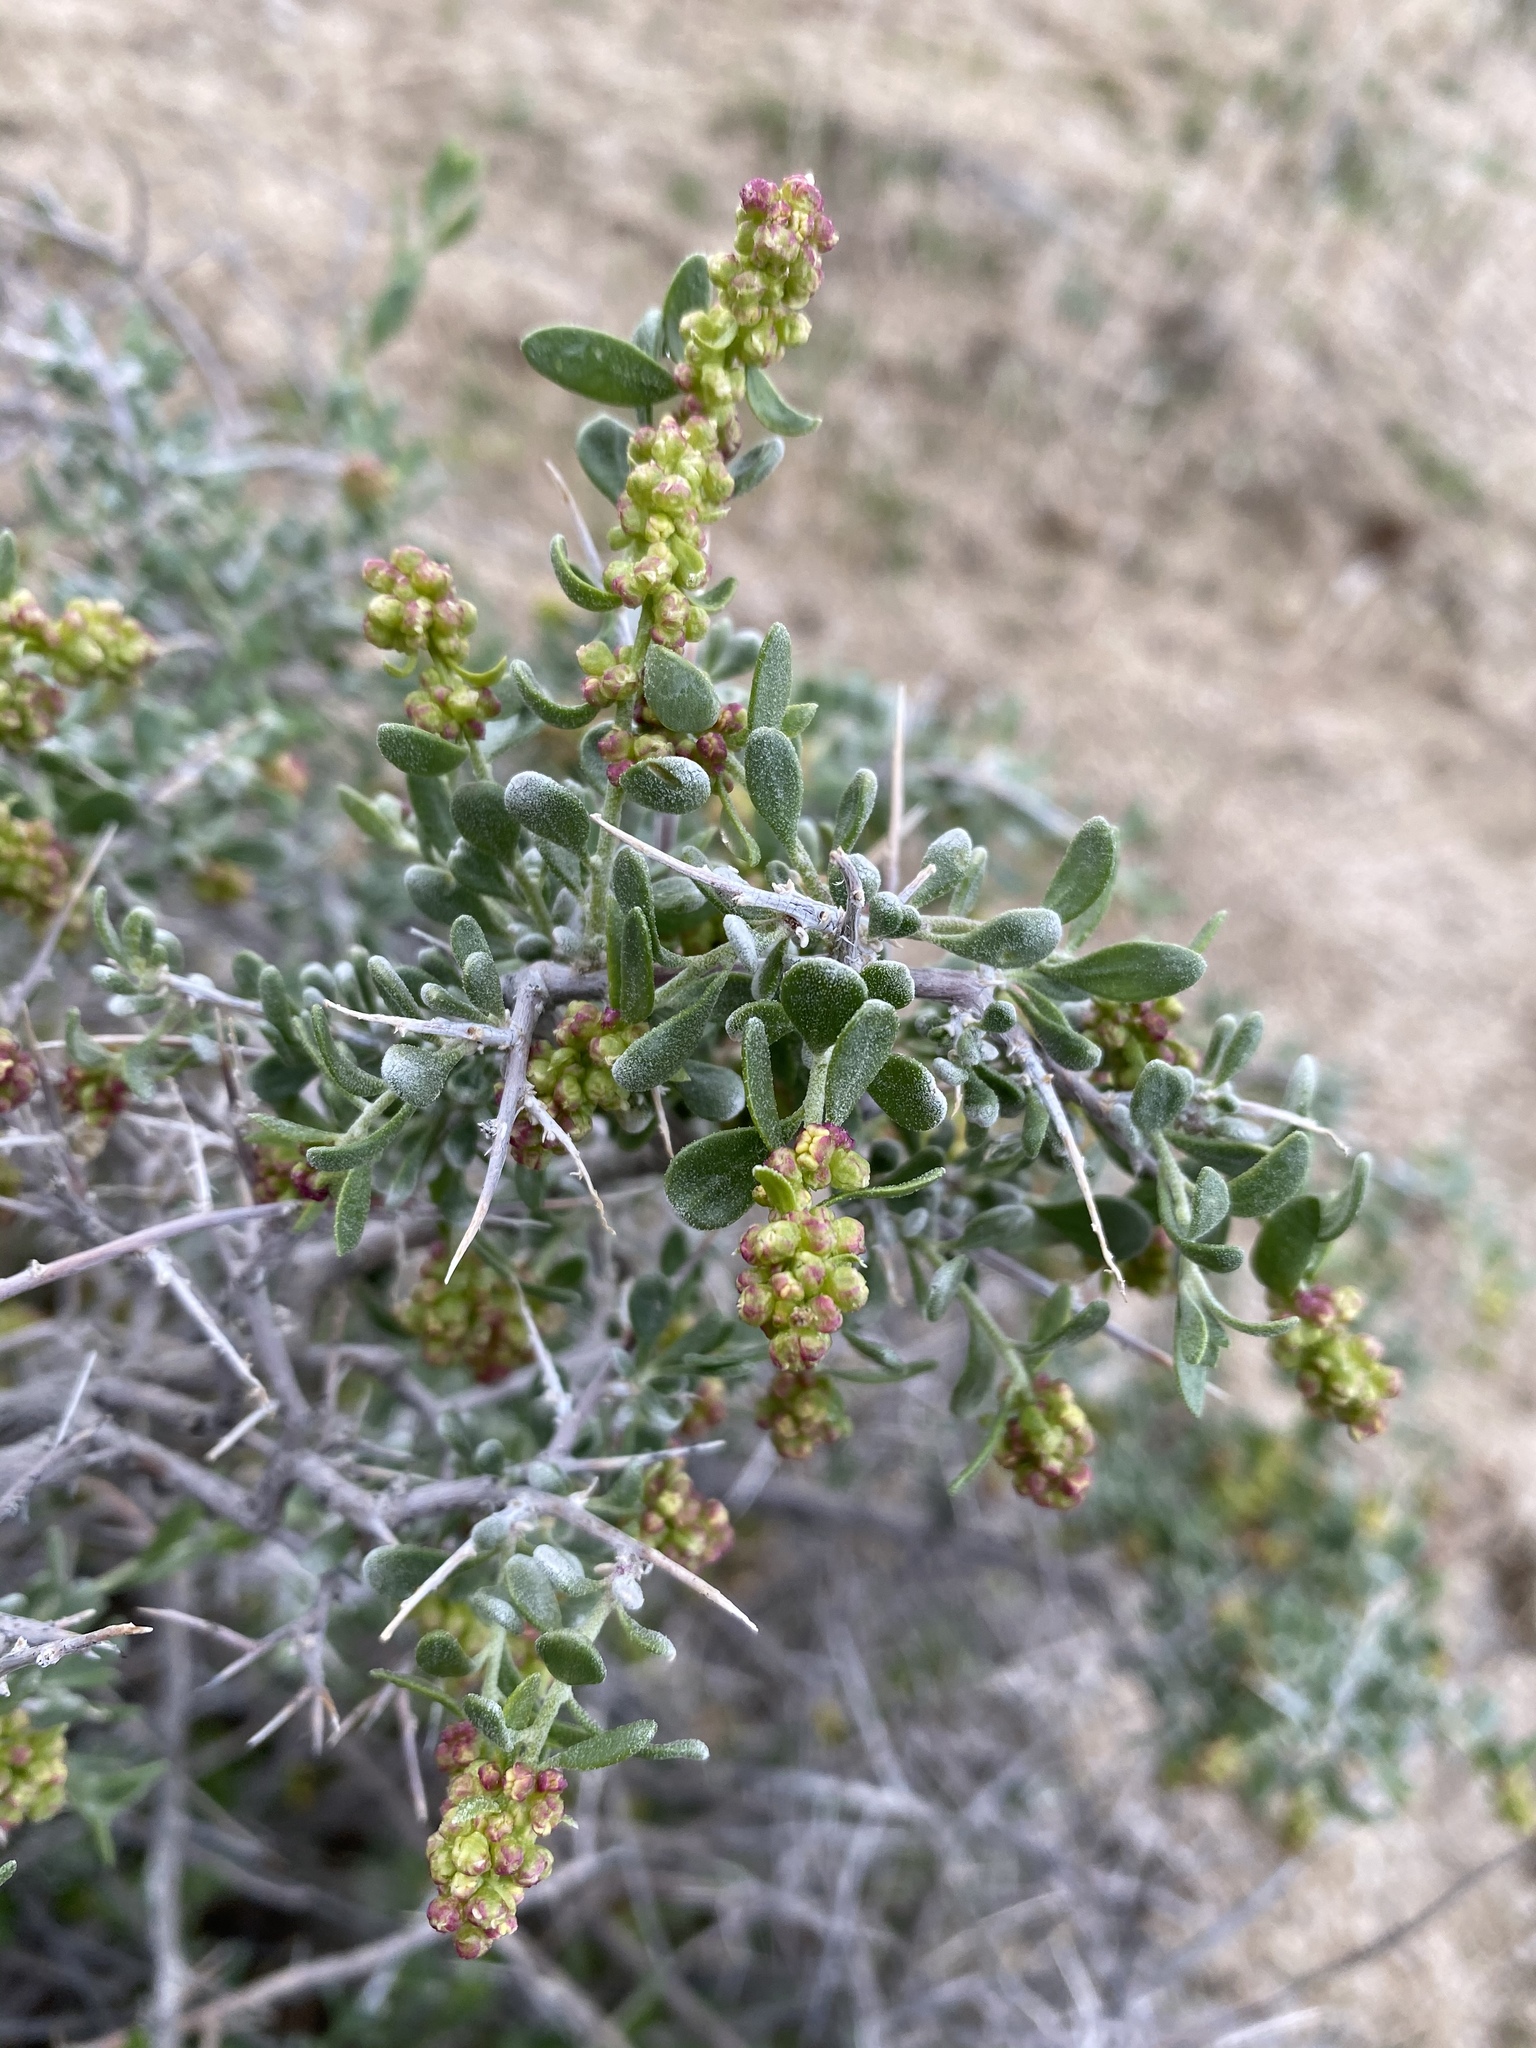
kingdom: Plantae
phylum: Tracheophyta
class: Magnoliopsida
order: Caryophyllales
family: Amaranthaceae
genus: Grayia
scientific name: Grayia spinosa
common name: Spiny hopsage
